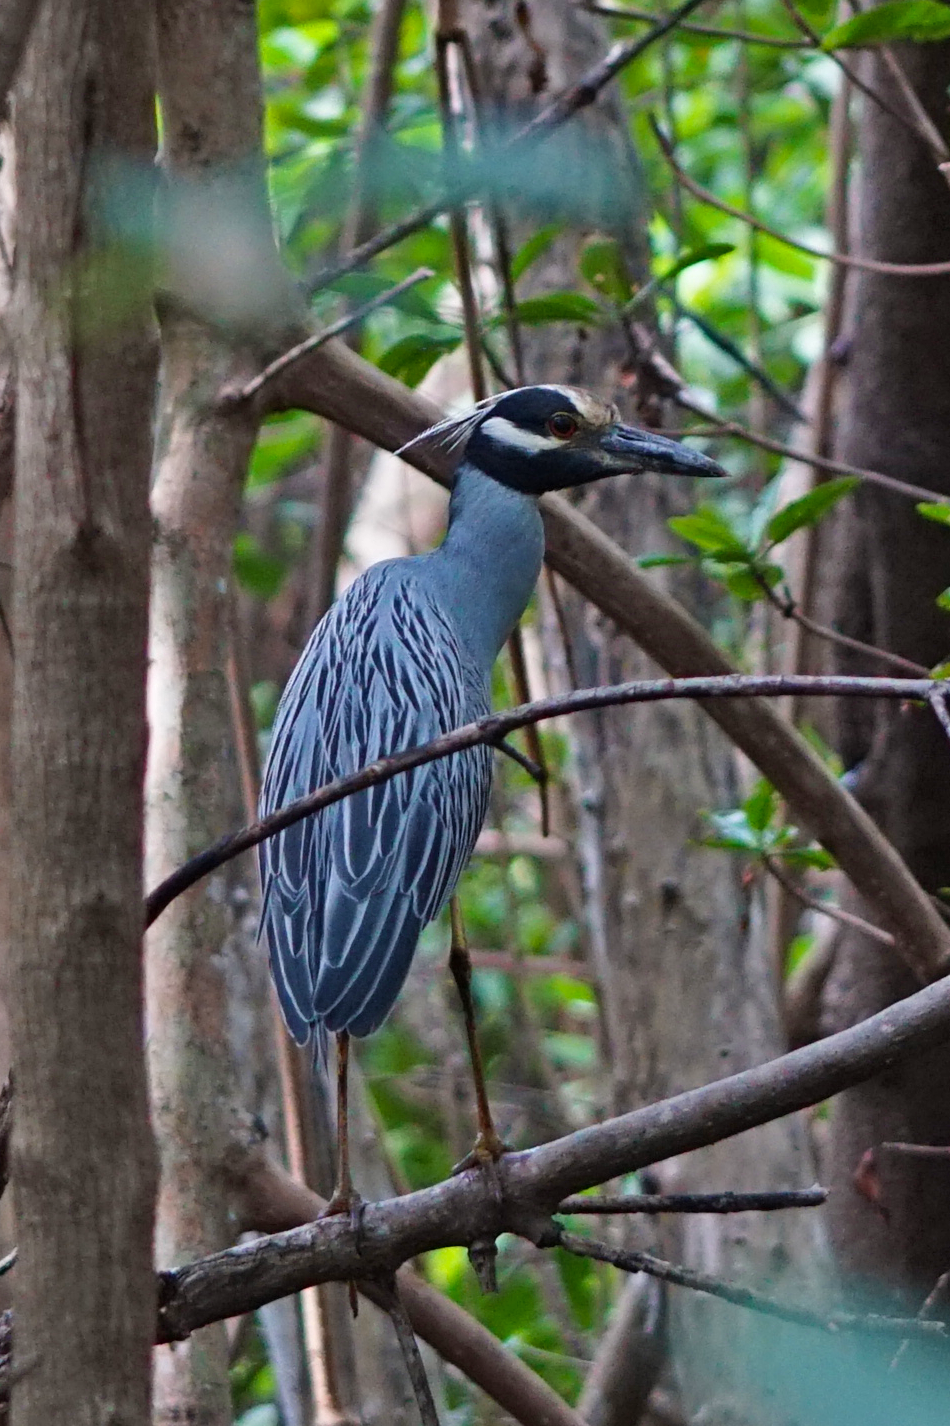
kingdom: Animalia
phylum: Chordata
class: Aves
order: Pelecaniformes
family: Ardeidae
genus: Nyctanassa
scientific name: Nyctanassa violacea
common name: Yellow-crowned night heron
